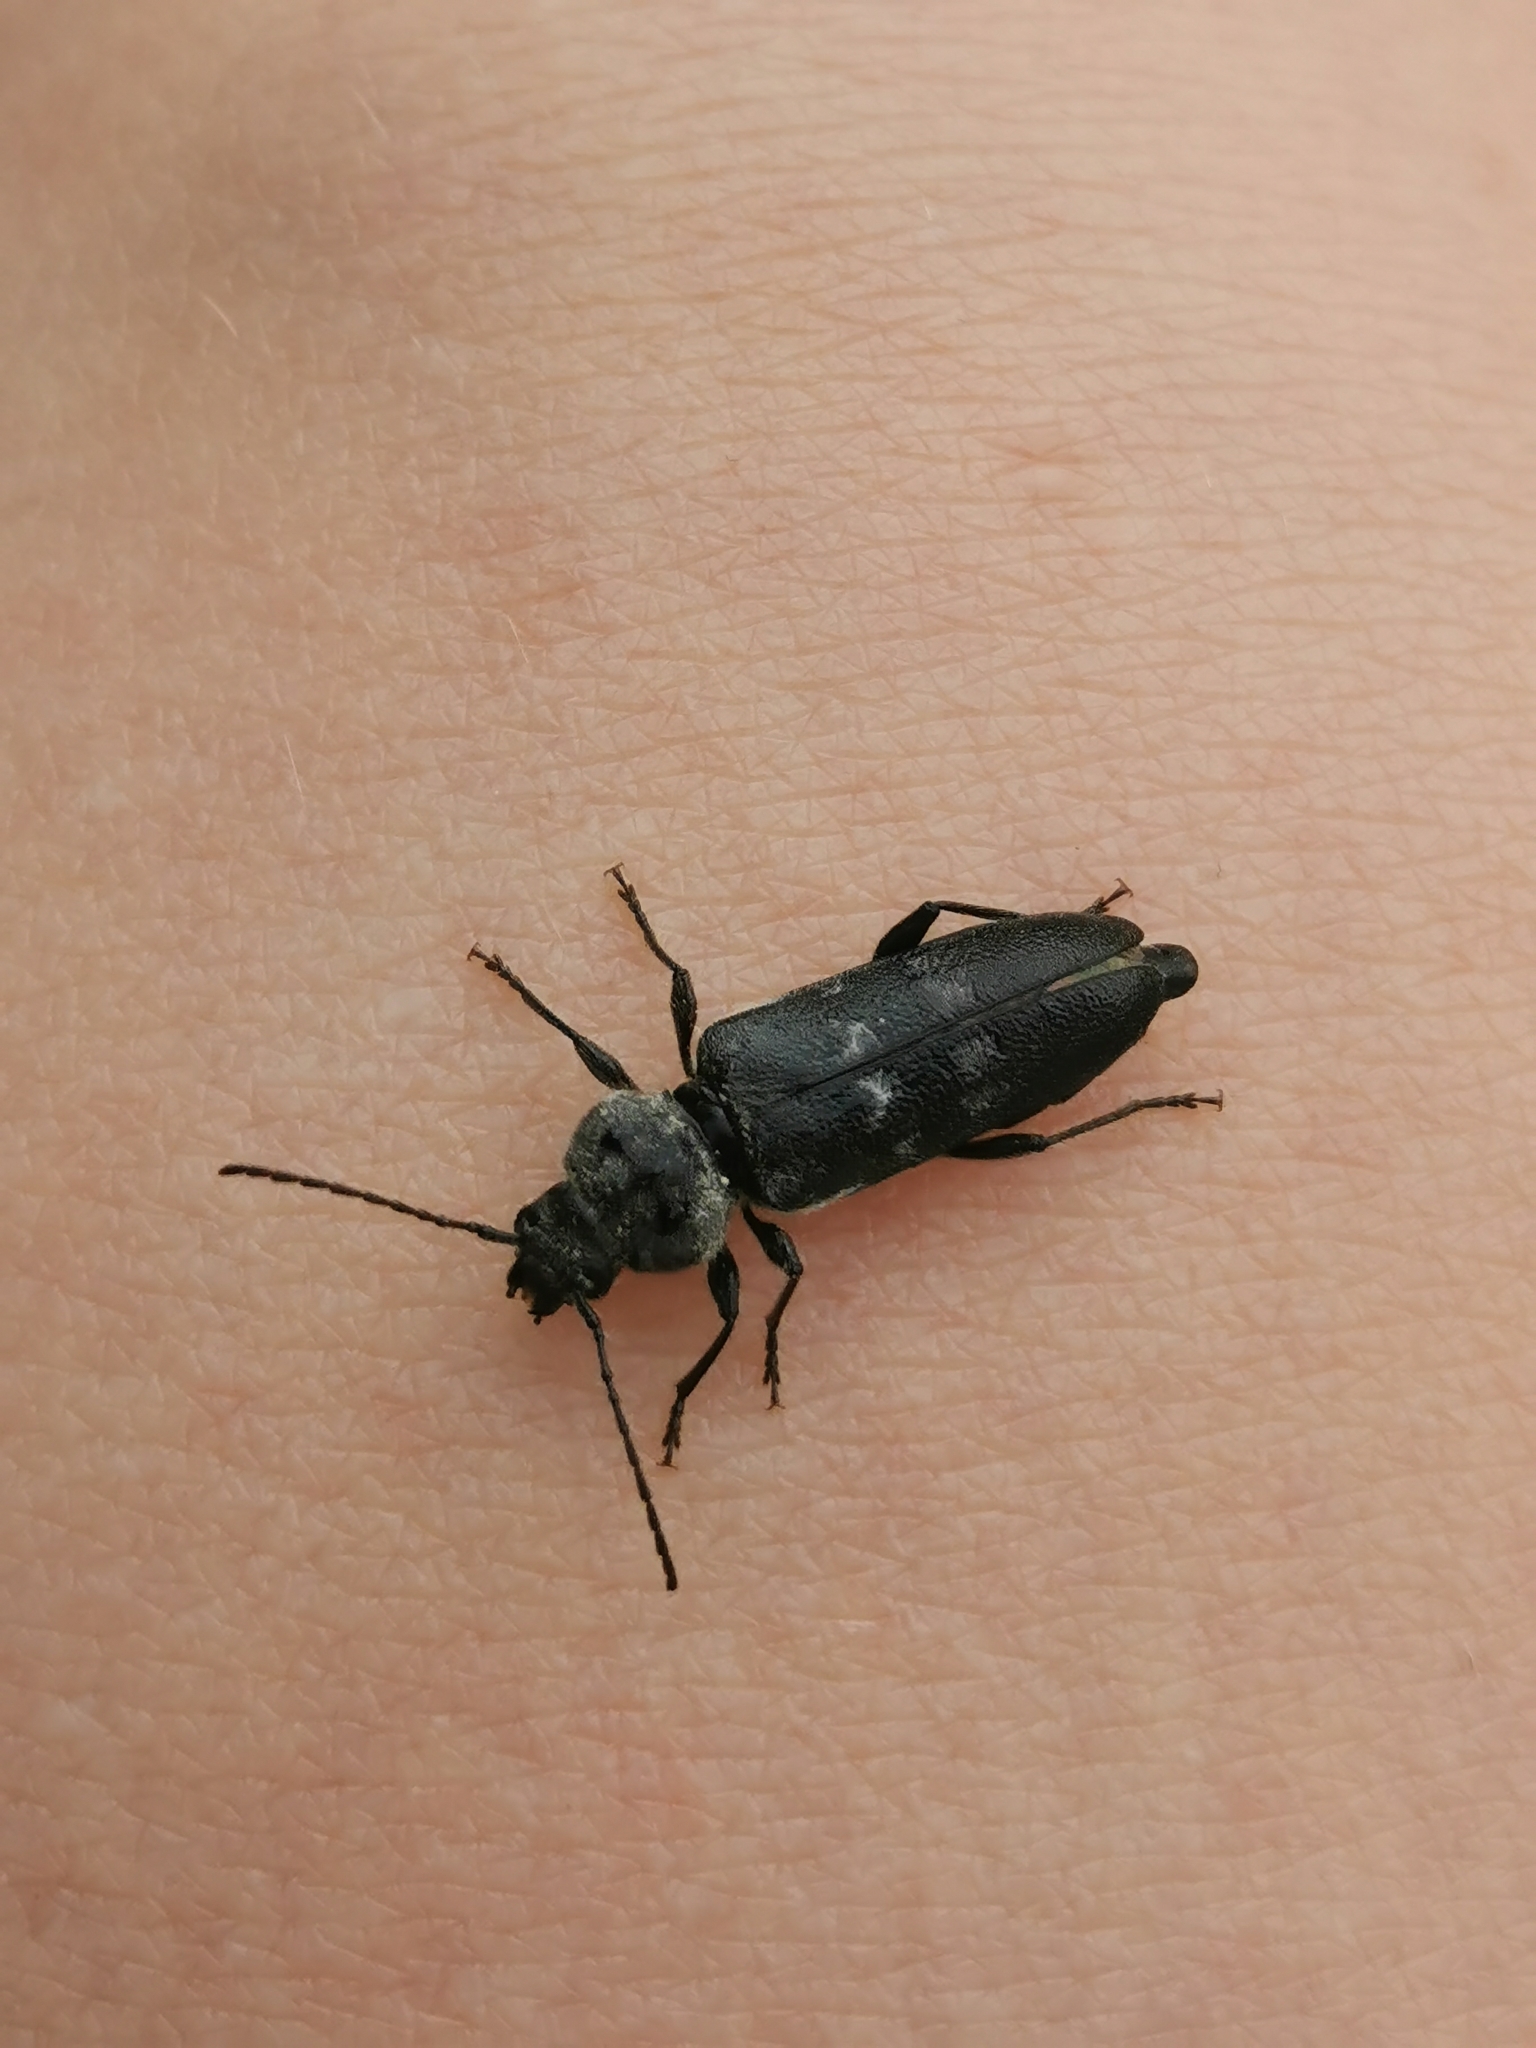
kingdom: Animalia
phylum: Arthropoda
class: Insecta
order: Coleoptera
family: Cerambycidae
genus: Hylotrupes
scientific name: Hylotrupes bajulus
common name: Old house borer
